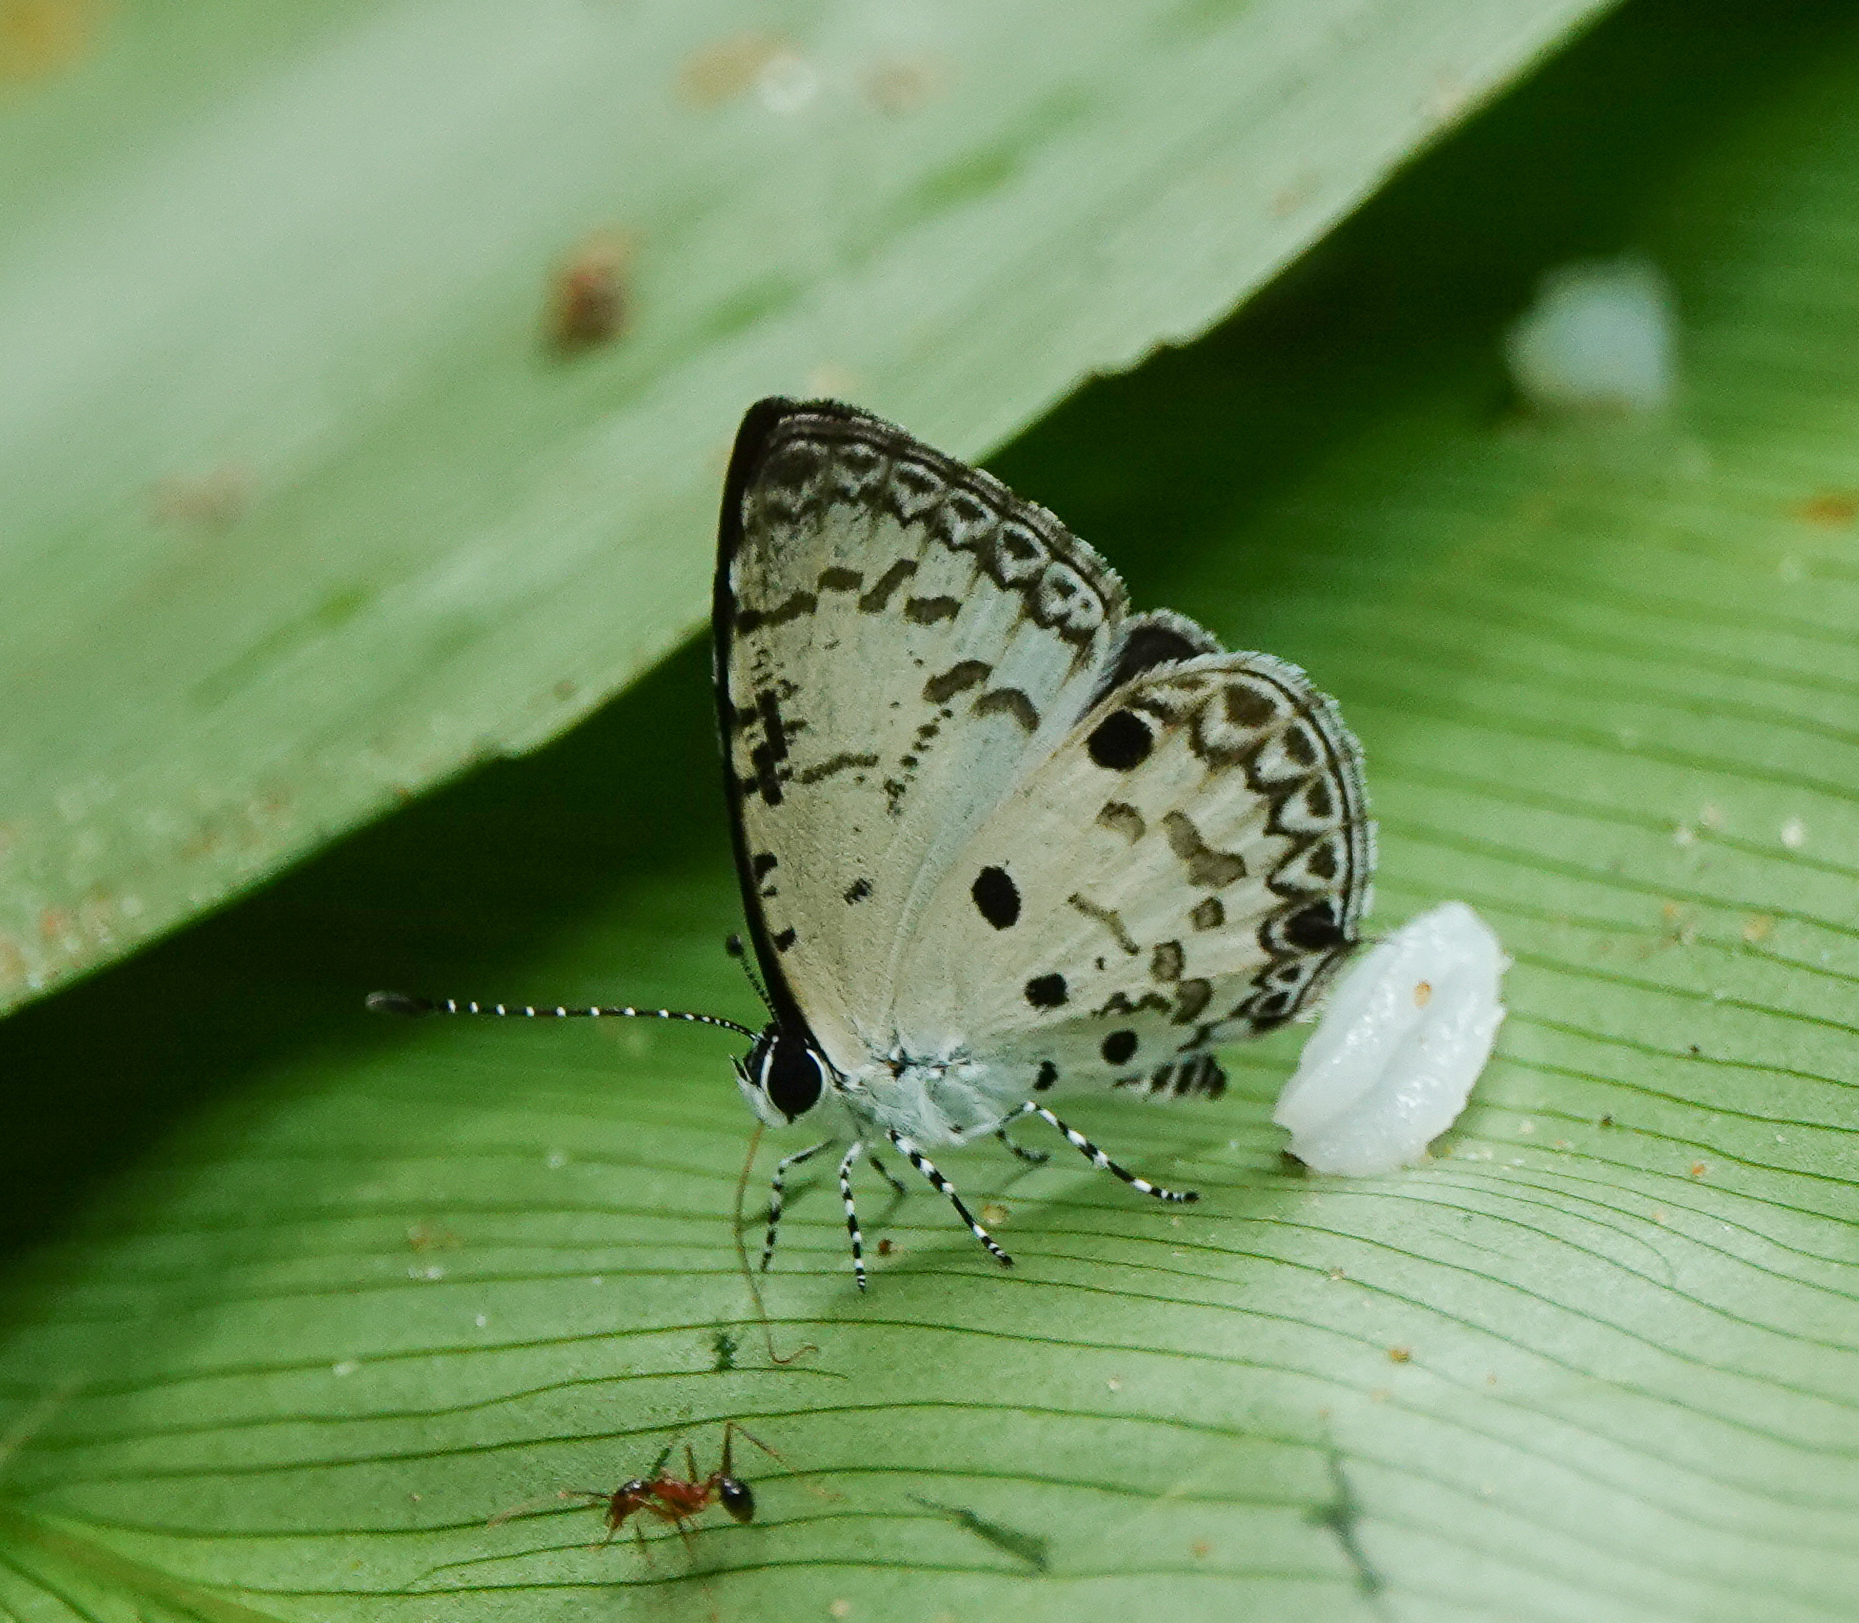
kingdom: Animalia
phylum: Arthropoda
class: Insecta
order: Lepidoptera
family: Lycaenidae
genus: Megisba
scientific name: Megisba malaya
